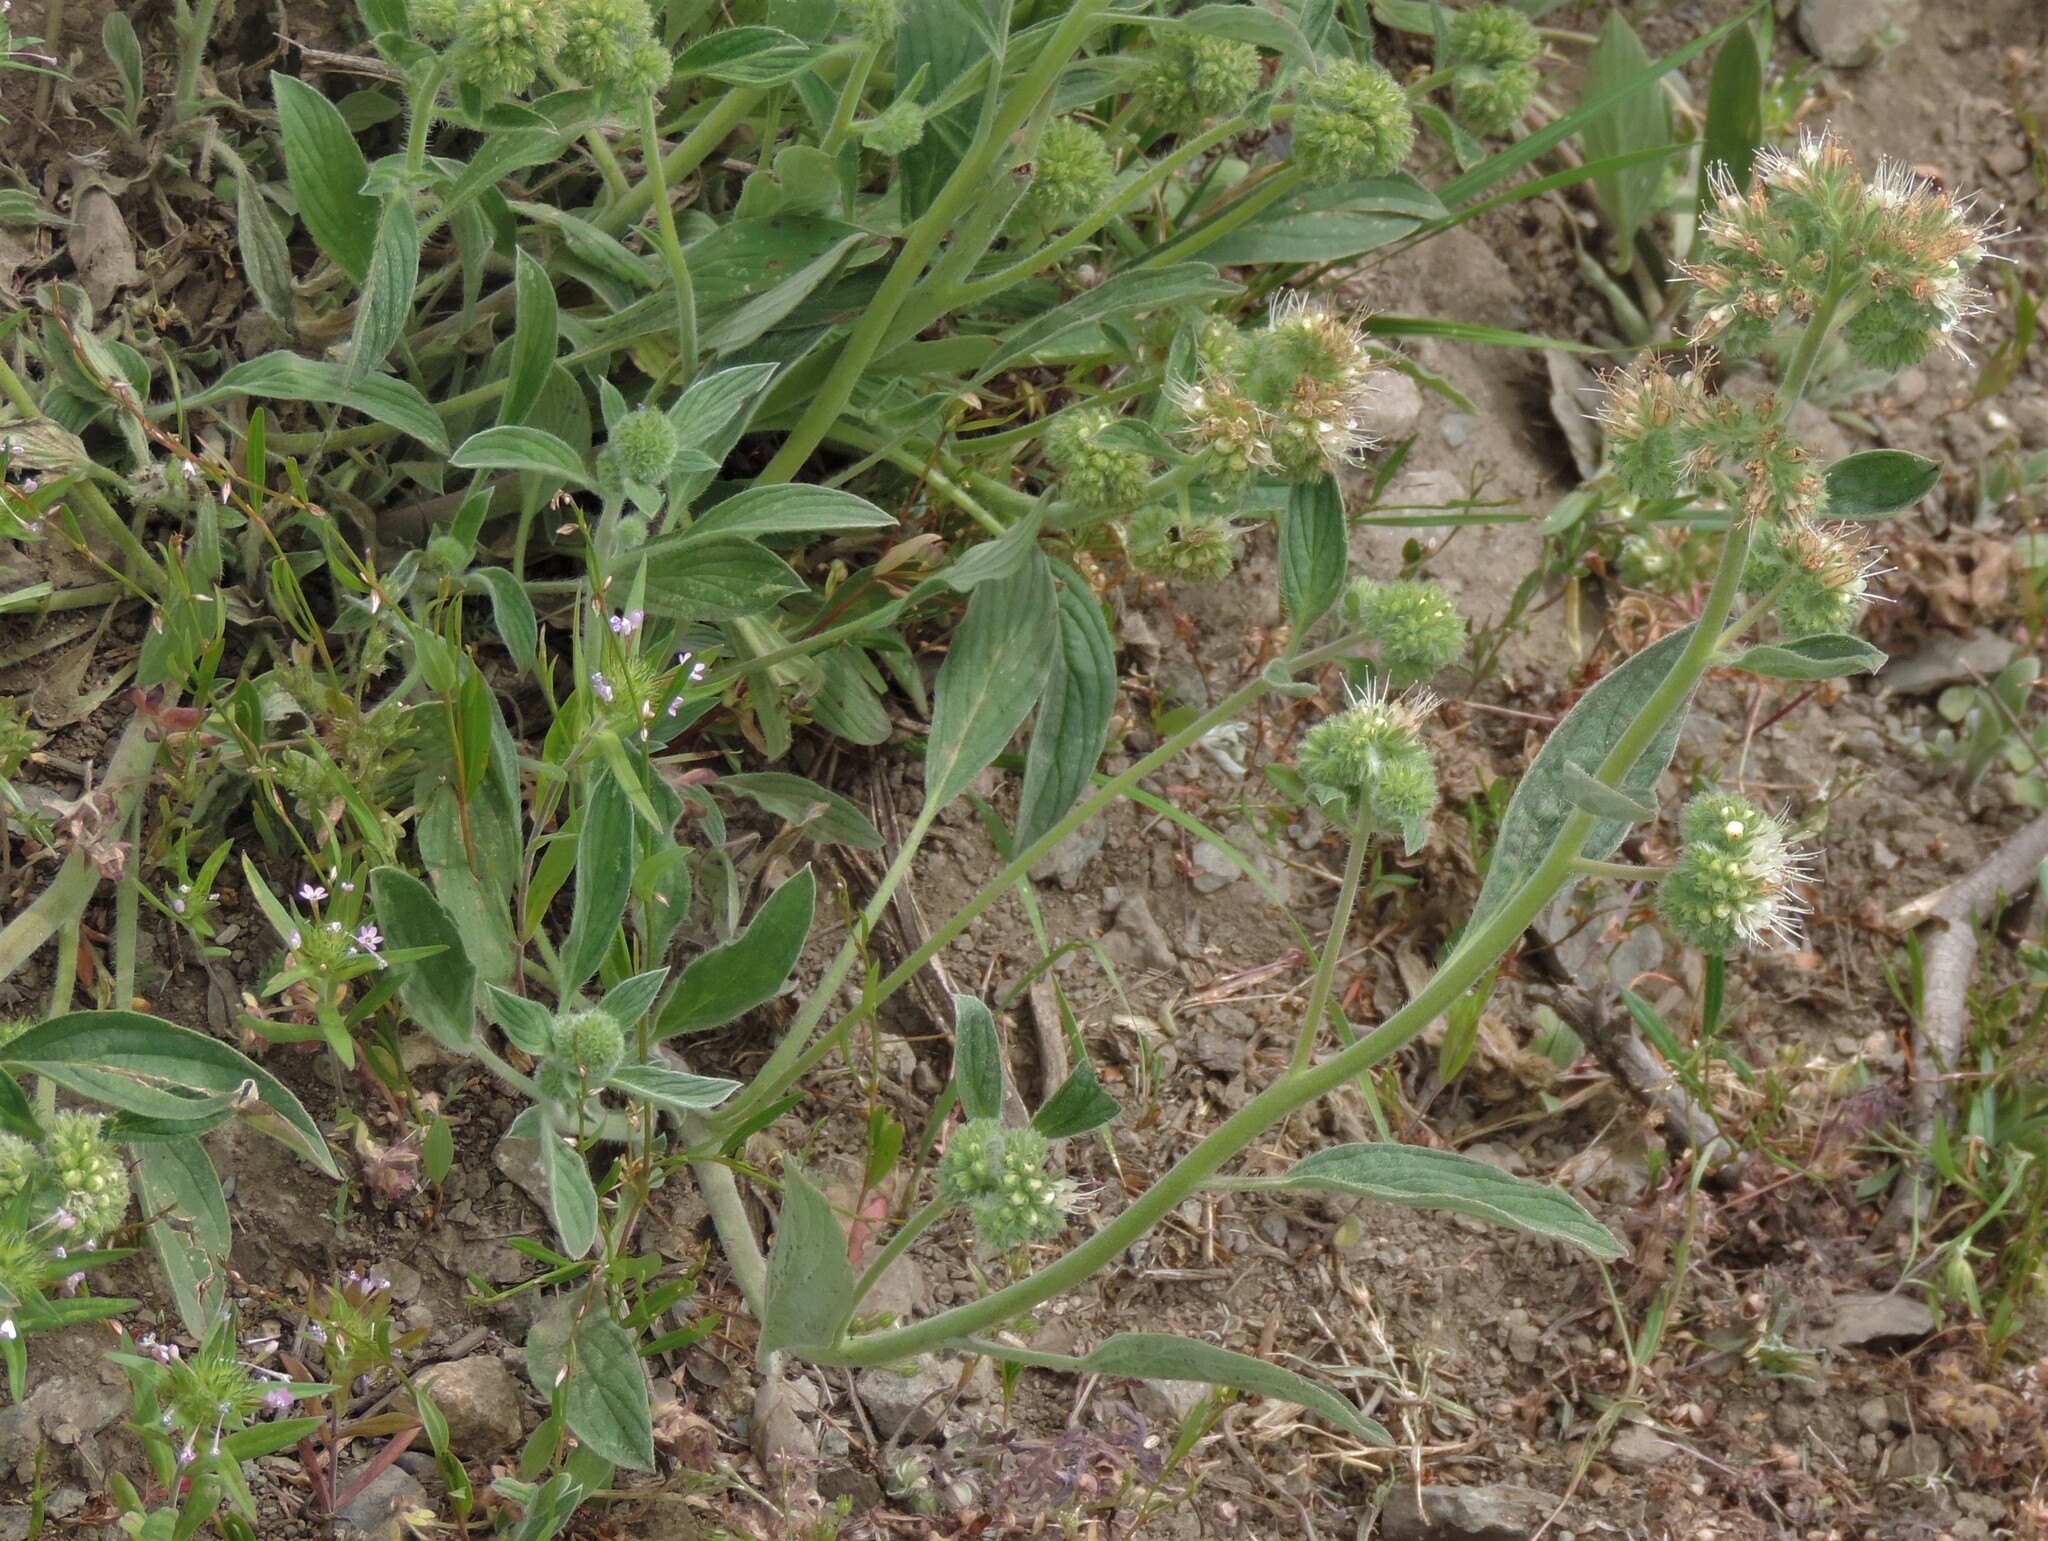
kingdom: Plantae
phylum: Tracheophyta
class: Magnoliopsida
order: Boraginales
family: Hydrophyllaceae
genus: Phacelia
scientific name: Phacelia hastata
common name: Silver-leaved phacelia
